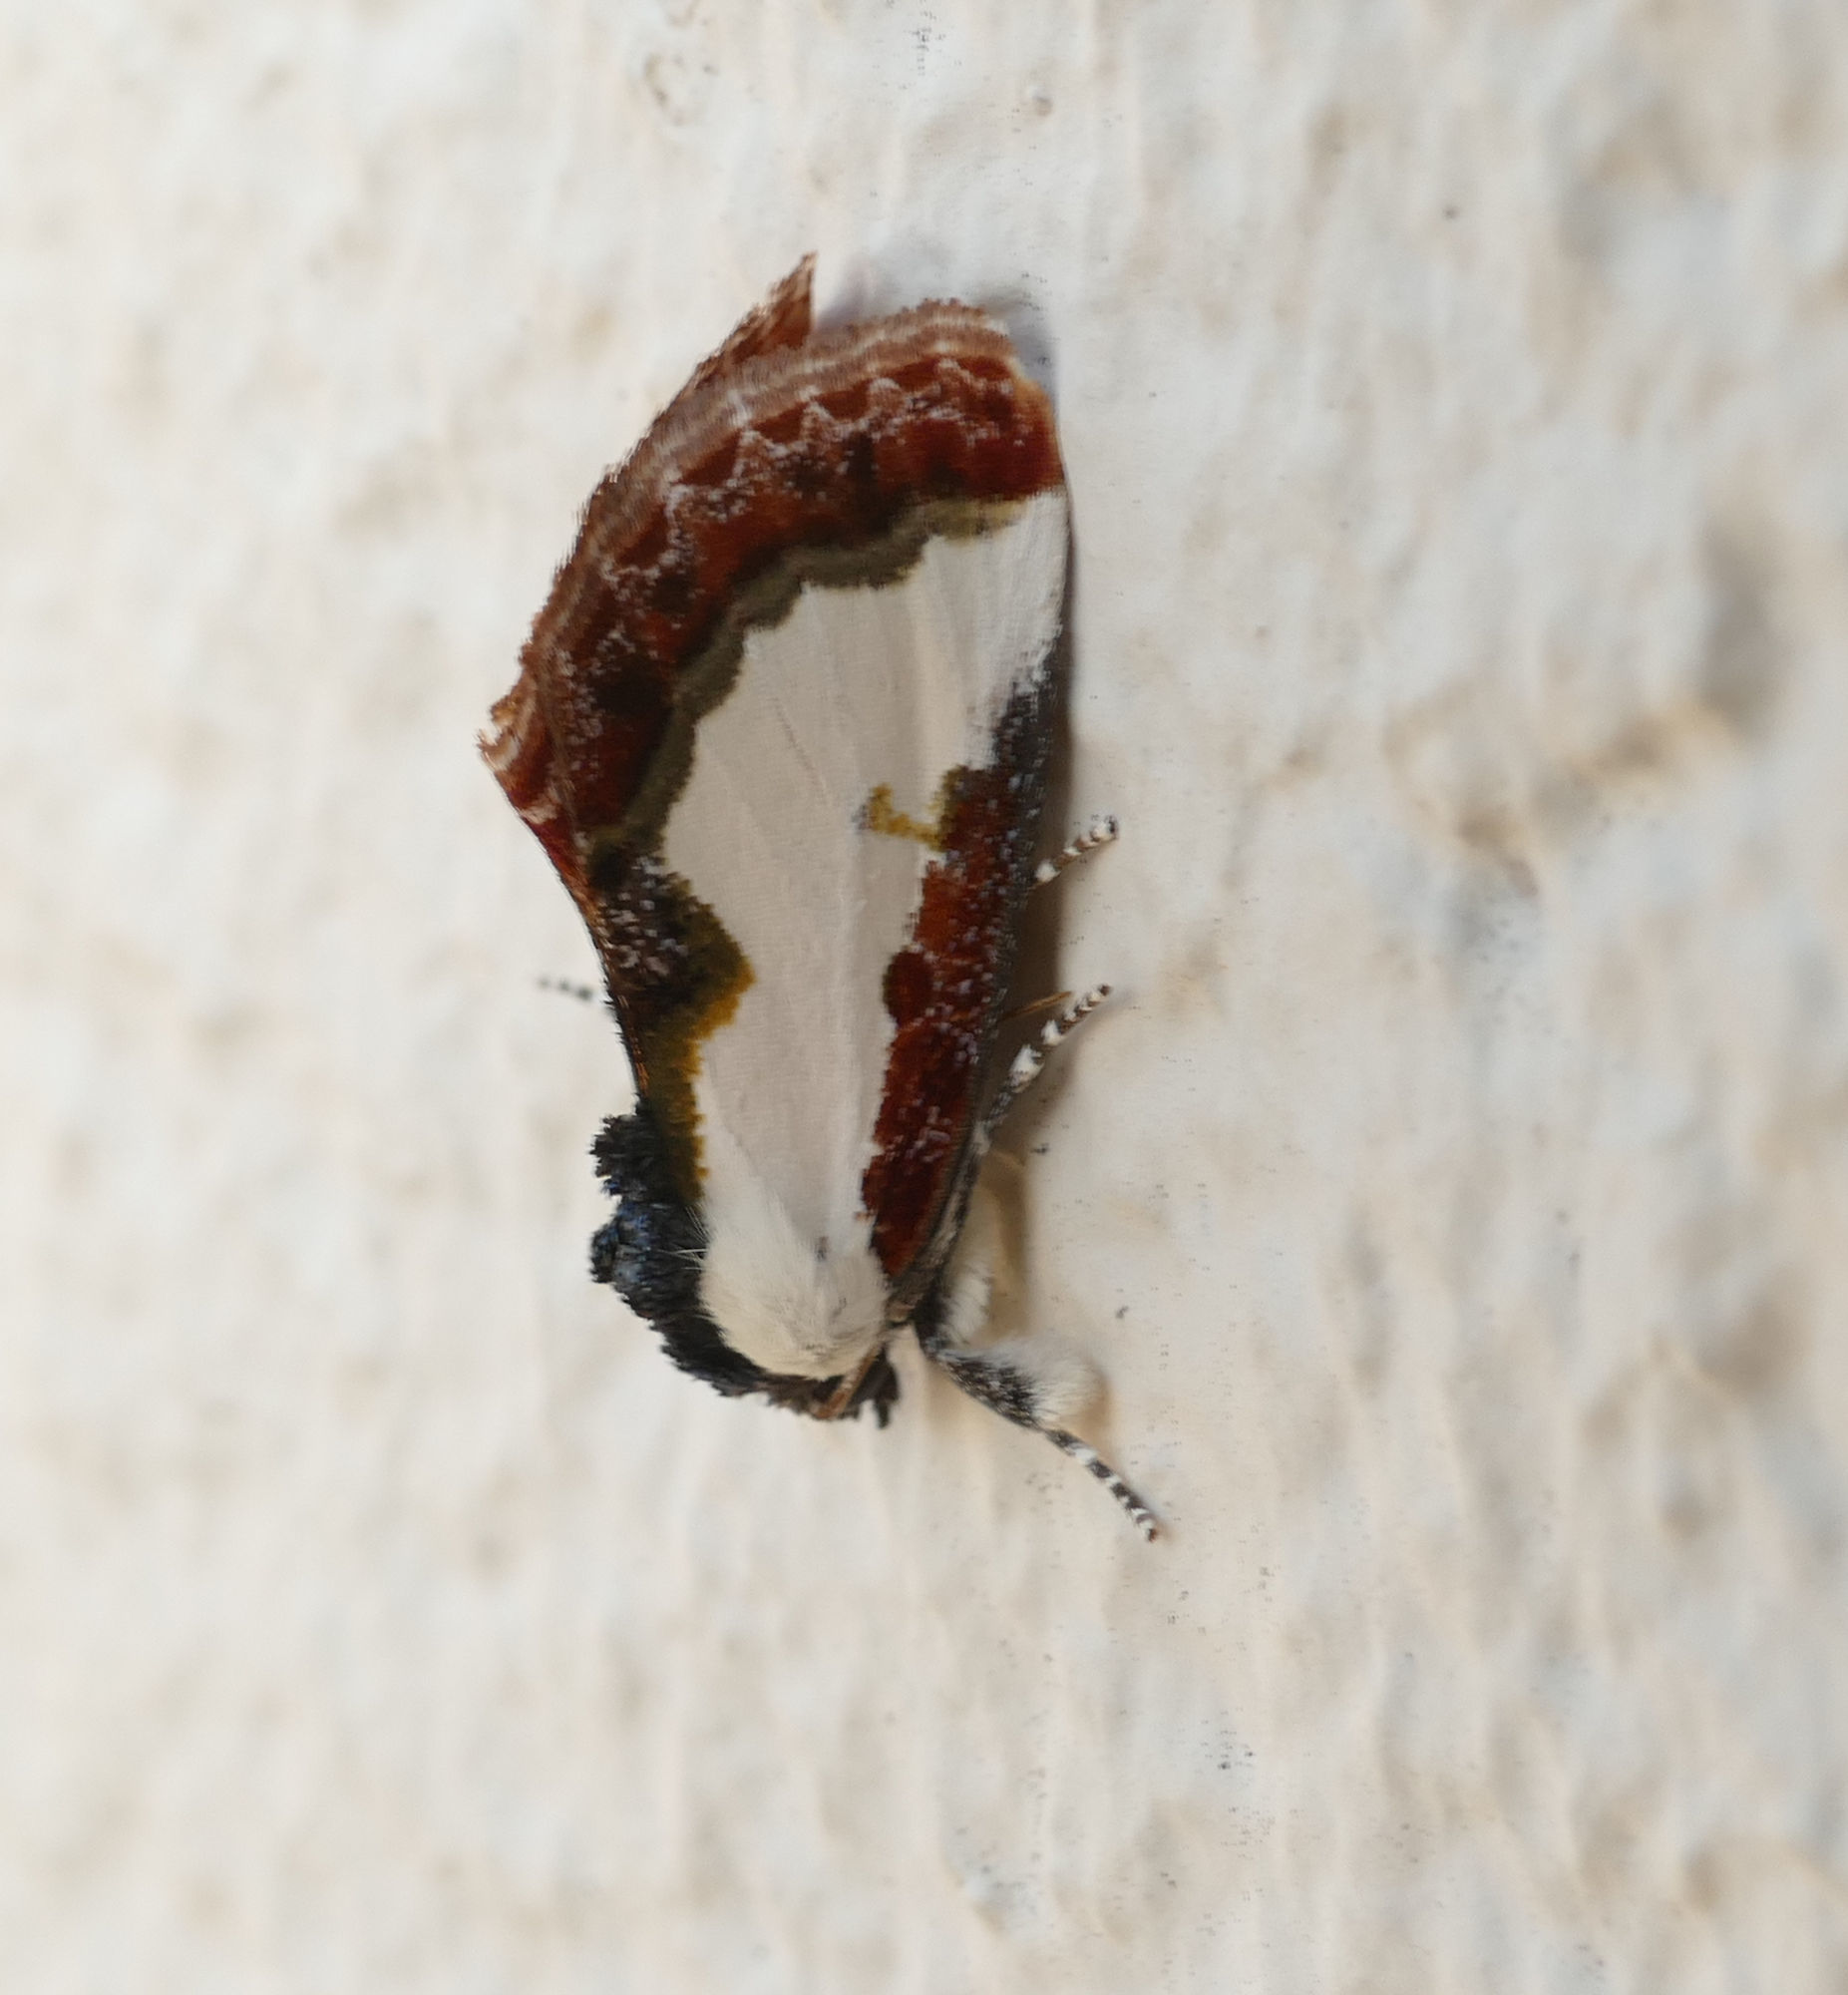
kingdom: Animalia
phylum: Arthropoda
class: Insecta
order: Lepidoptera
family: Noctuidae
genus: Eudryas
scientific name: Eudryas unio
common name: Pearly wood-nymph
